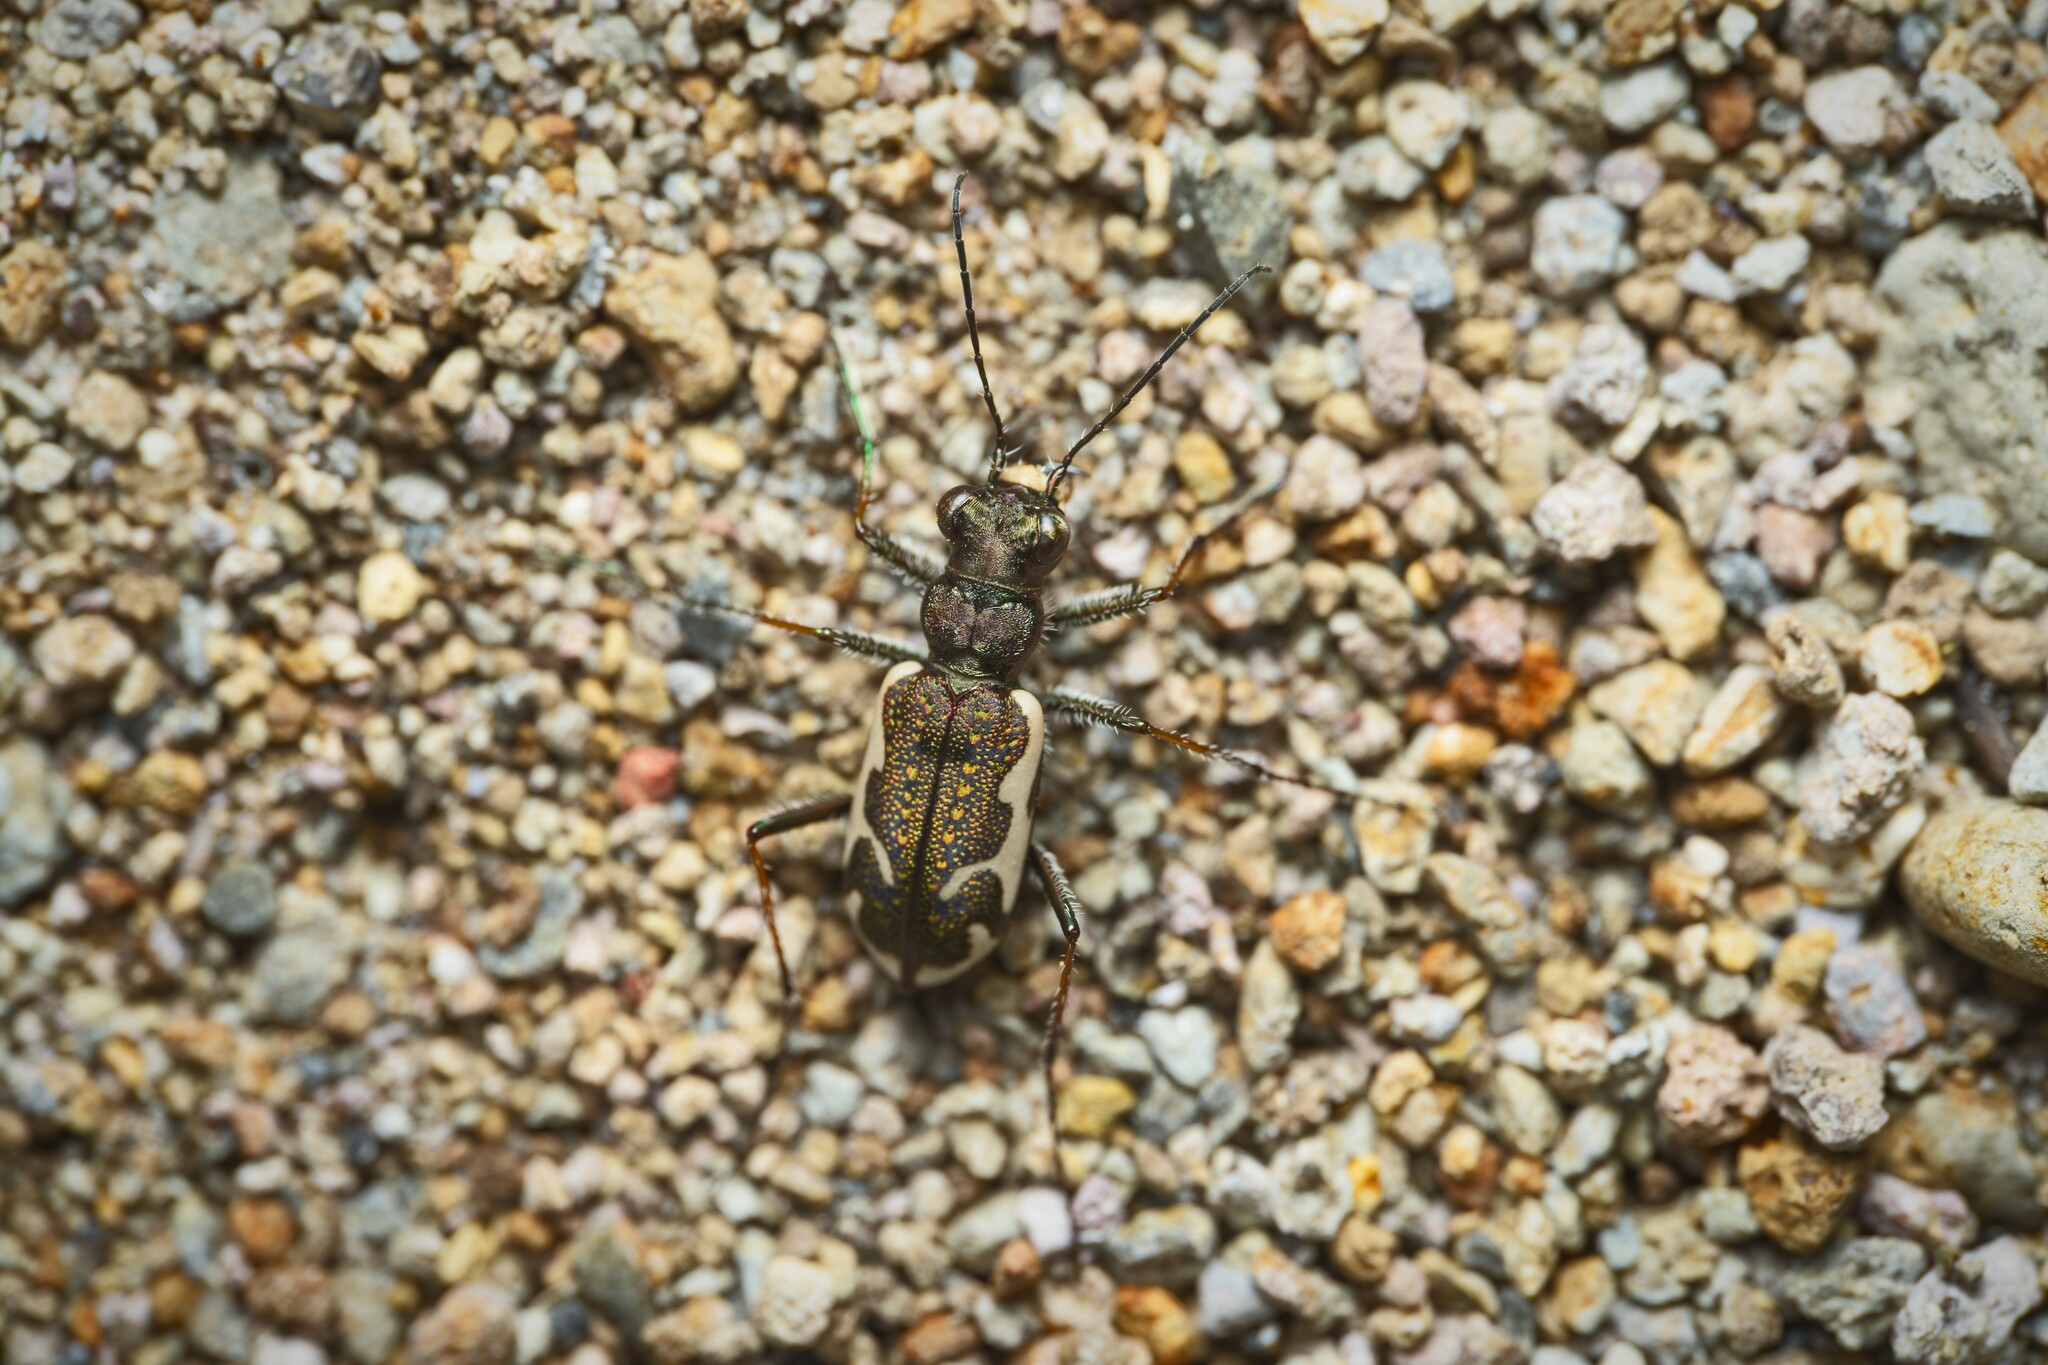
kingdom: Animalia
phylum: Arthropoda
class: Insecta
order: Coleoptera
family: Carabidae
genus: Neocicindela
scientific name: Neocicindela tuberculata
